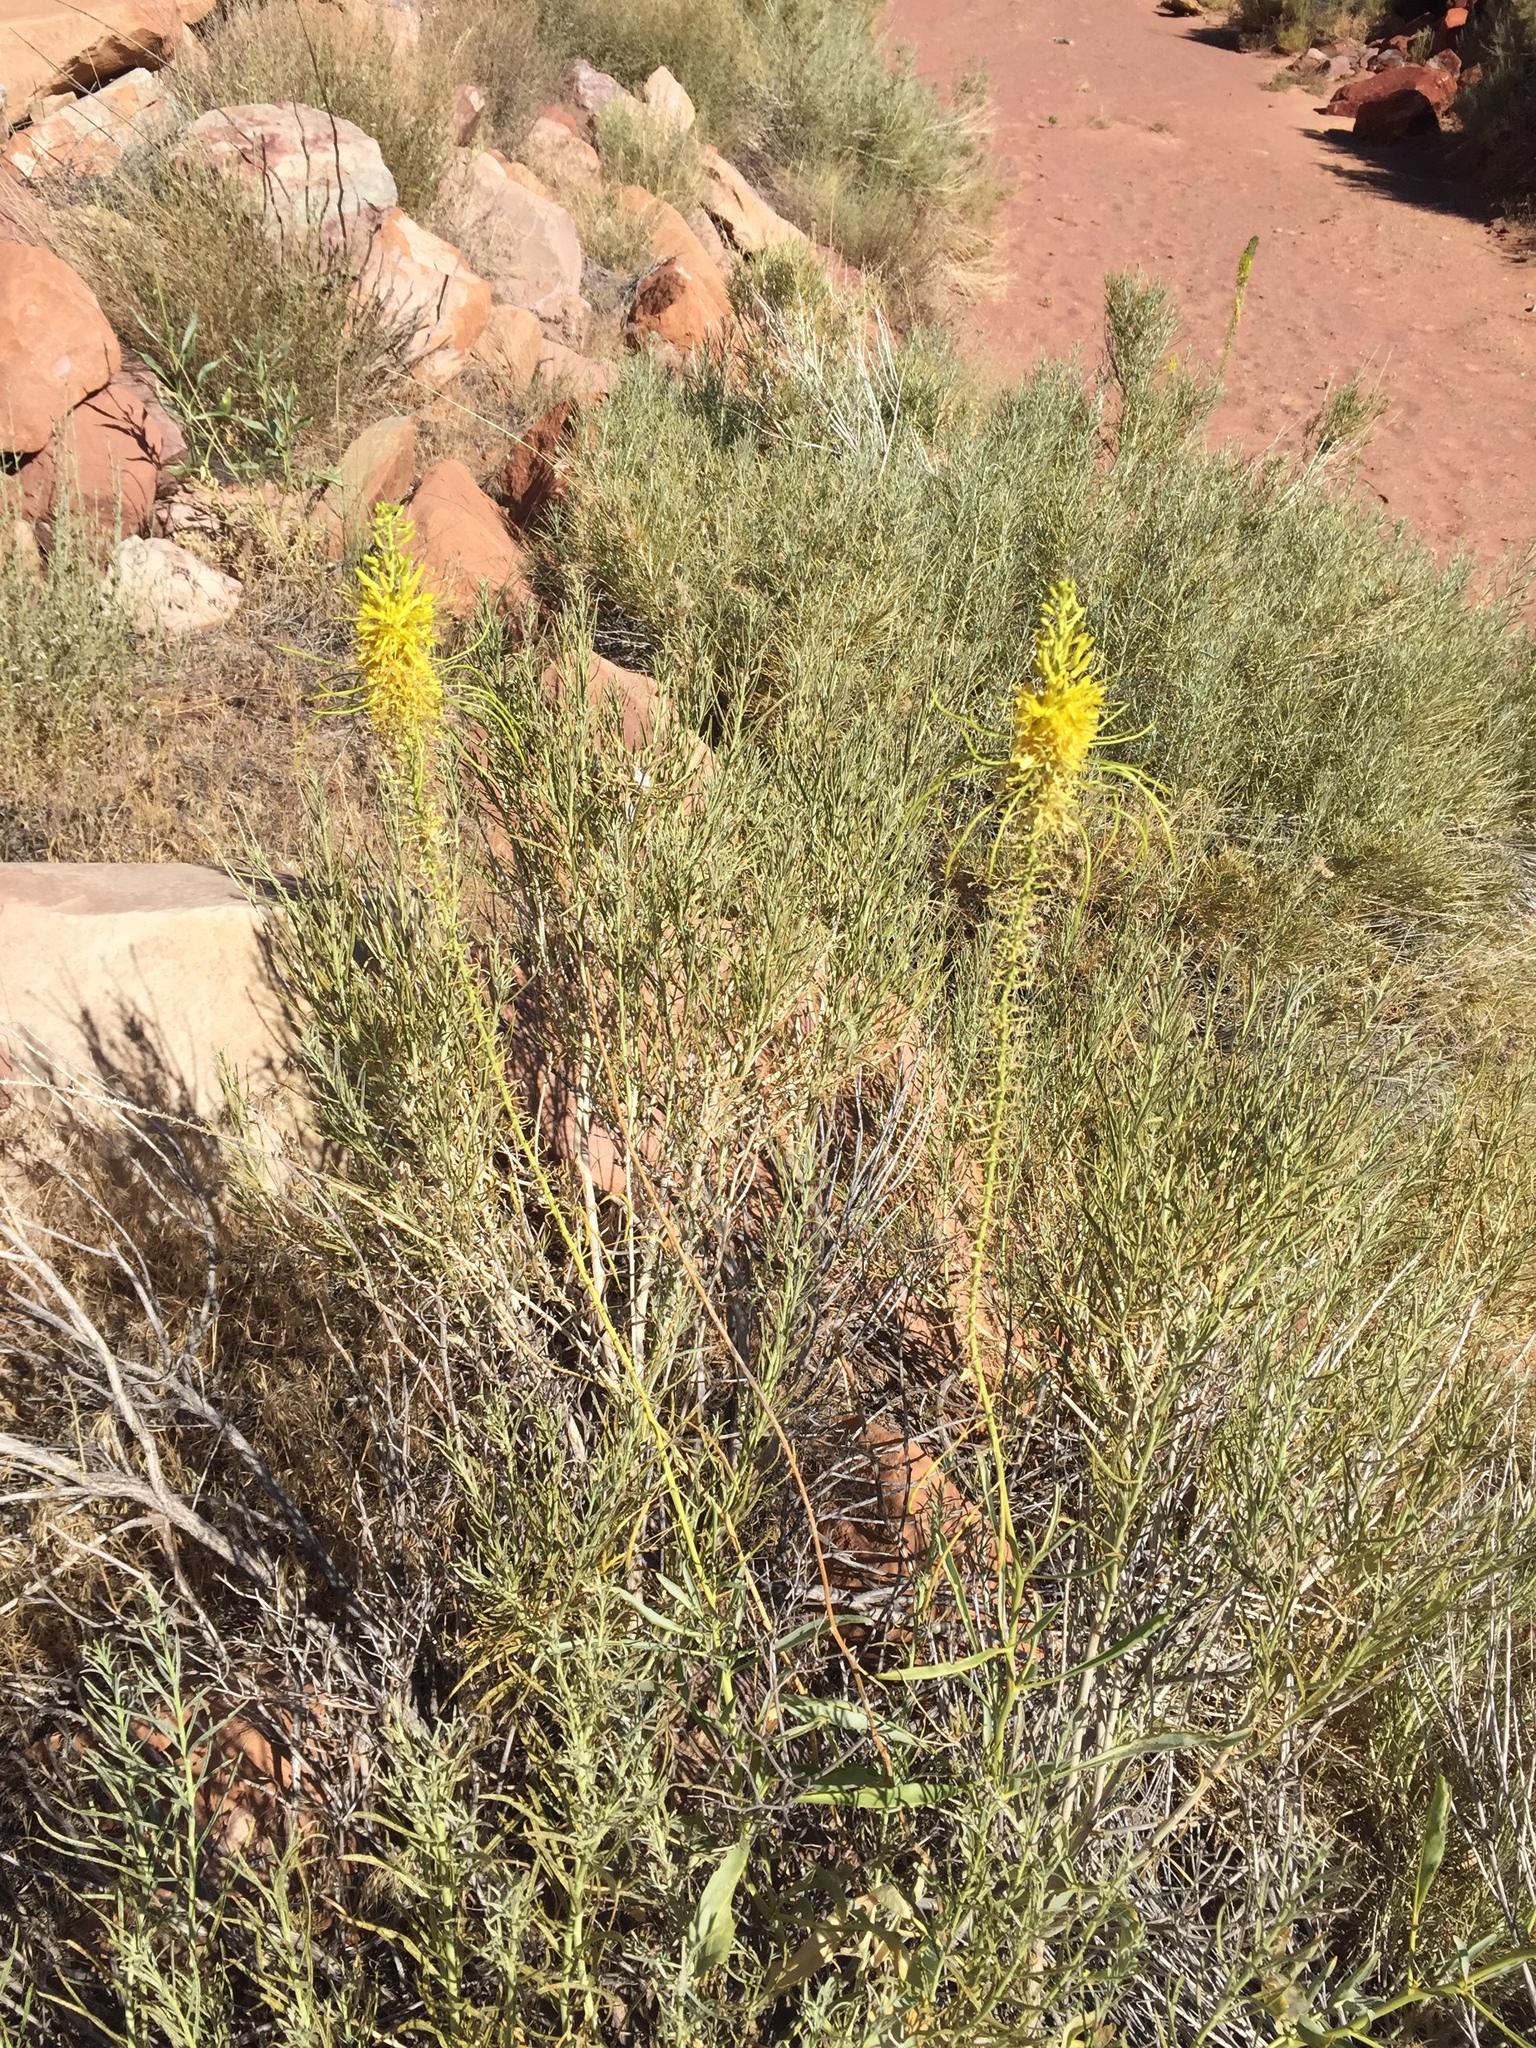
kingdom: Plantae
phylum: Tracheophyta
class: Magnoliopsida
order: Brassicales
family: Brassicaceae
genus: Stanleya
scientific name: Stanleya pinnata
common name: Prince's-plume
